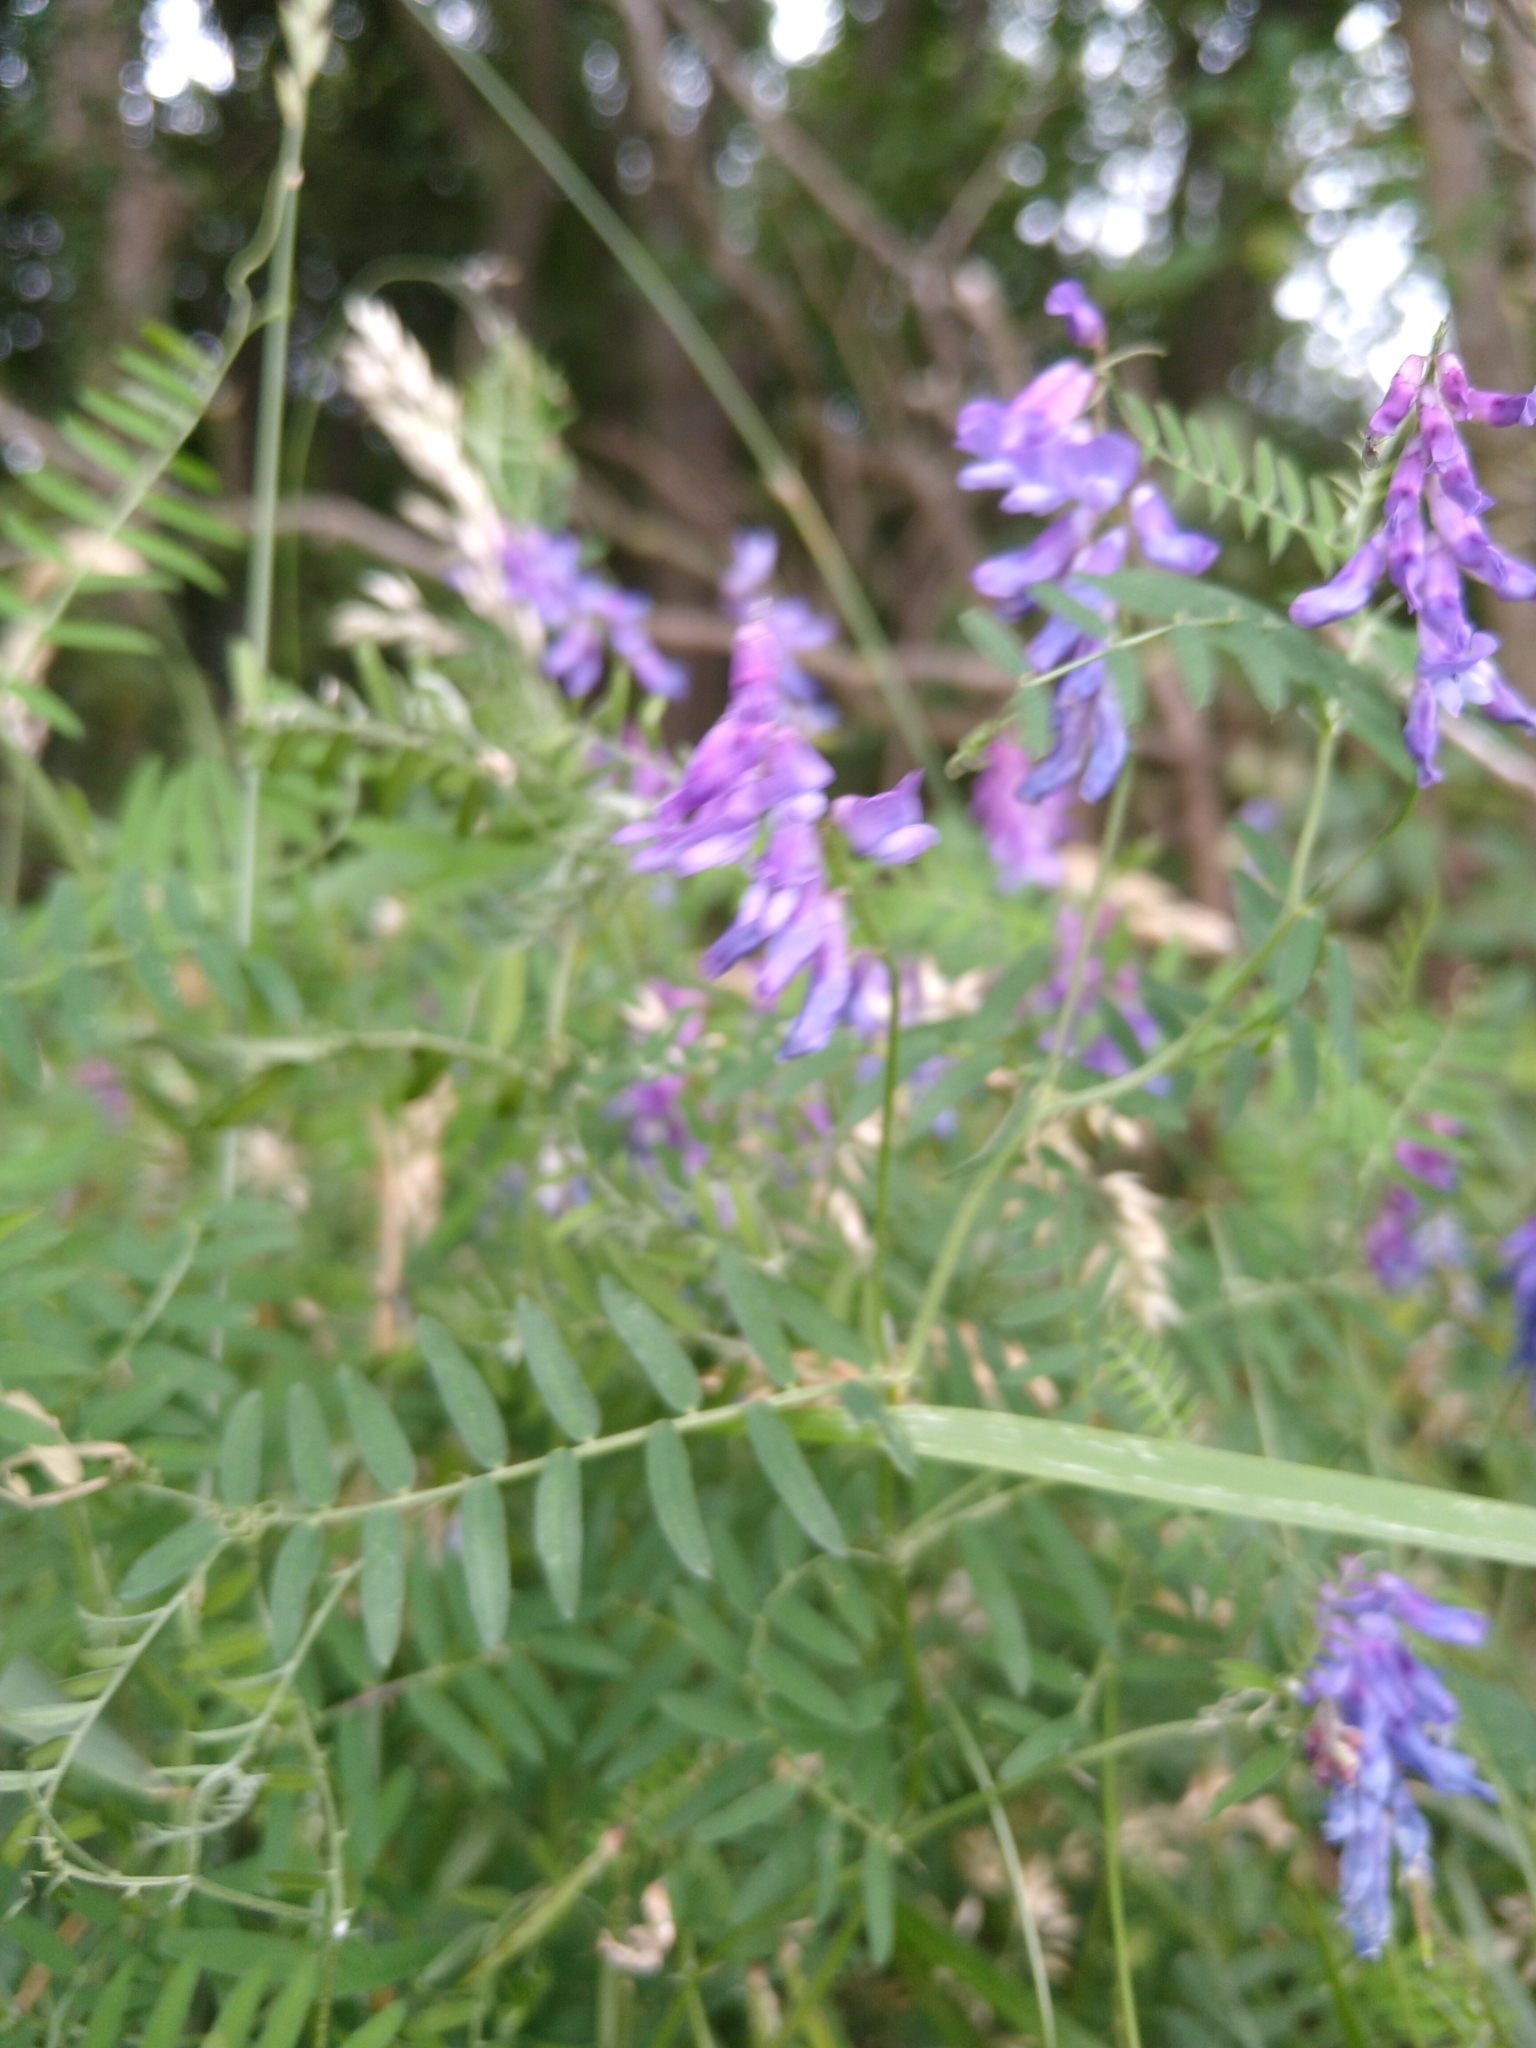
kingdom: Plantae
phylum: Tracheophyta
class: Magnoliopsida
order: Fabales
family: Fabaceae
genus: Vicia
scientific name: Vicia cracca
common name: Bird vetch
